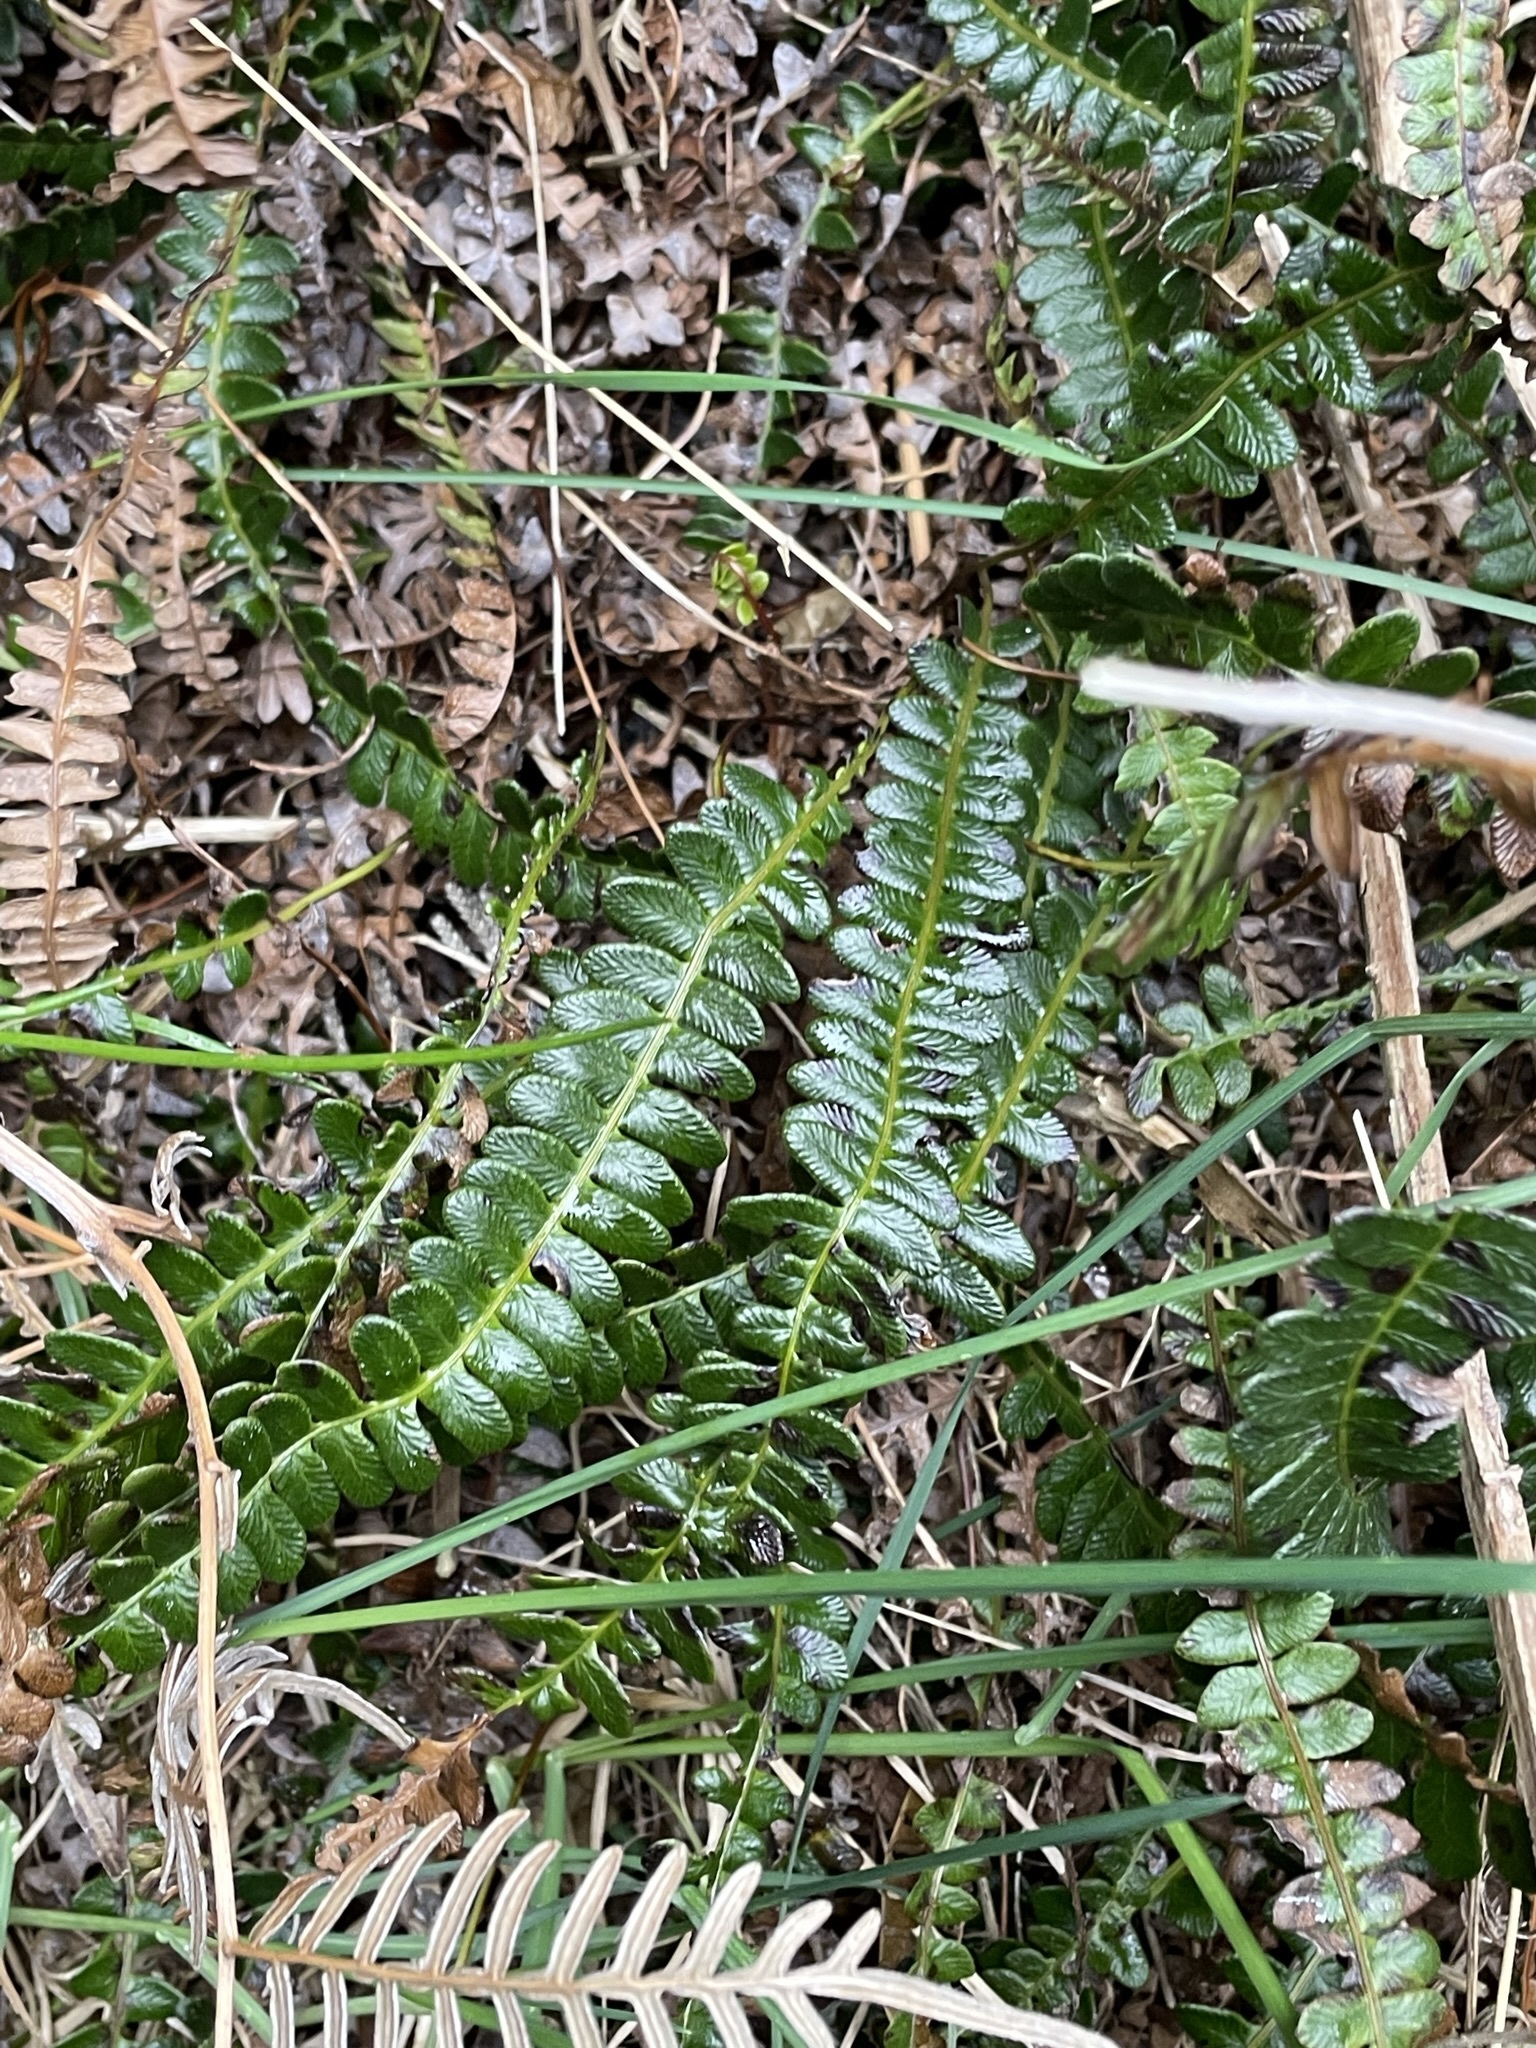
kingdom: Plantae
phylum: Tracheophyta
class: Polypodiopsida
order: Polypodiales
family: Blechnaceae
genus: Austroblechnum
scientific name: Austroblechnum penna-marina
